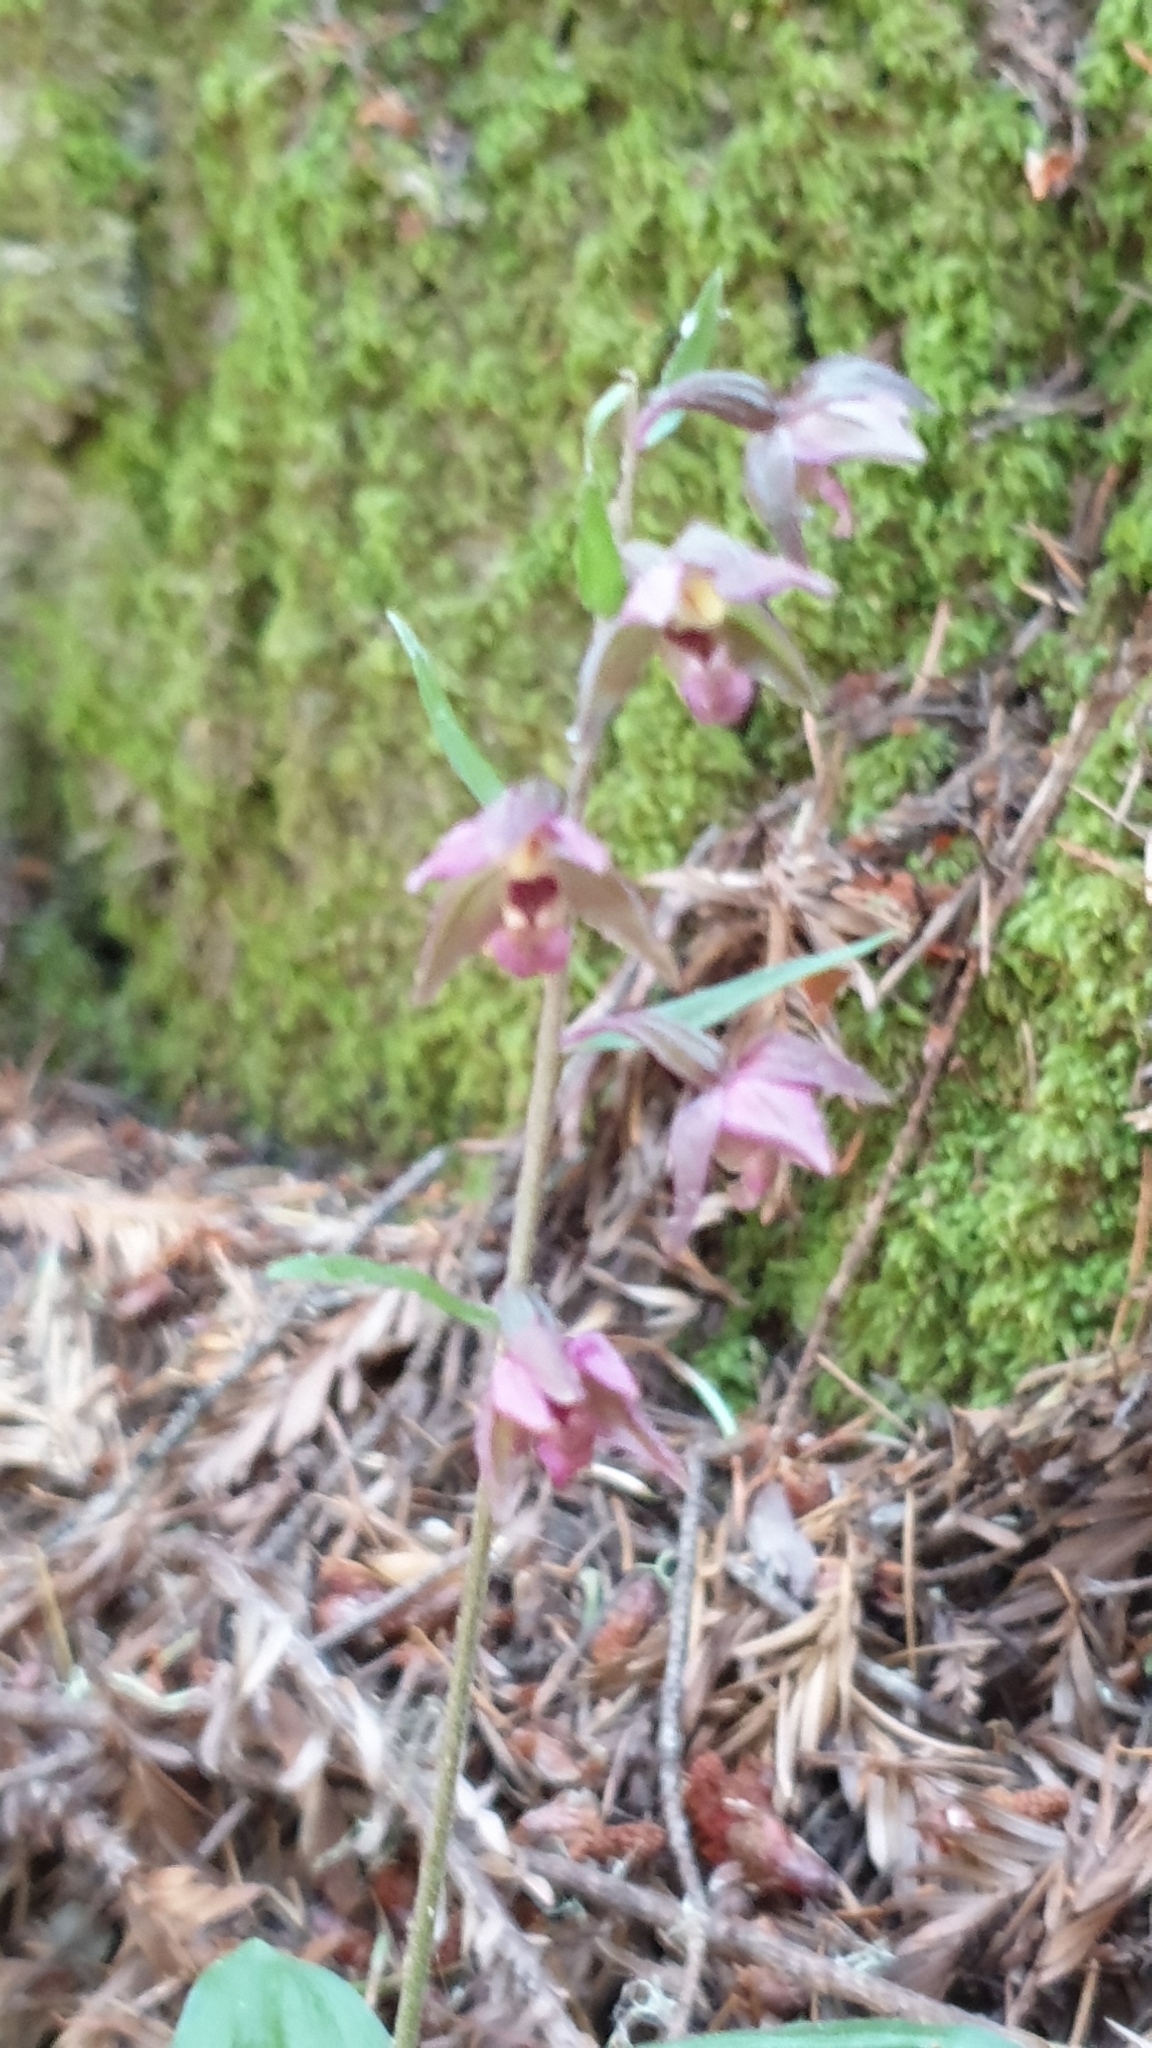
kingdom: Plantae
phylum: Tracheophyta
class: Liliopsida
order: Asparagales
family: Orchidaceae
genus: Epipactis
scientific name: Epipactis helleborine
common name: Broad-leaved helleborine
